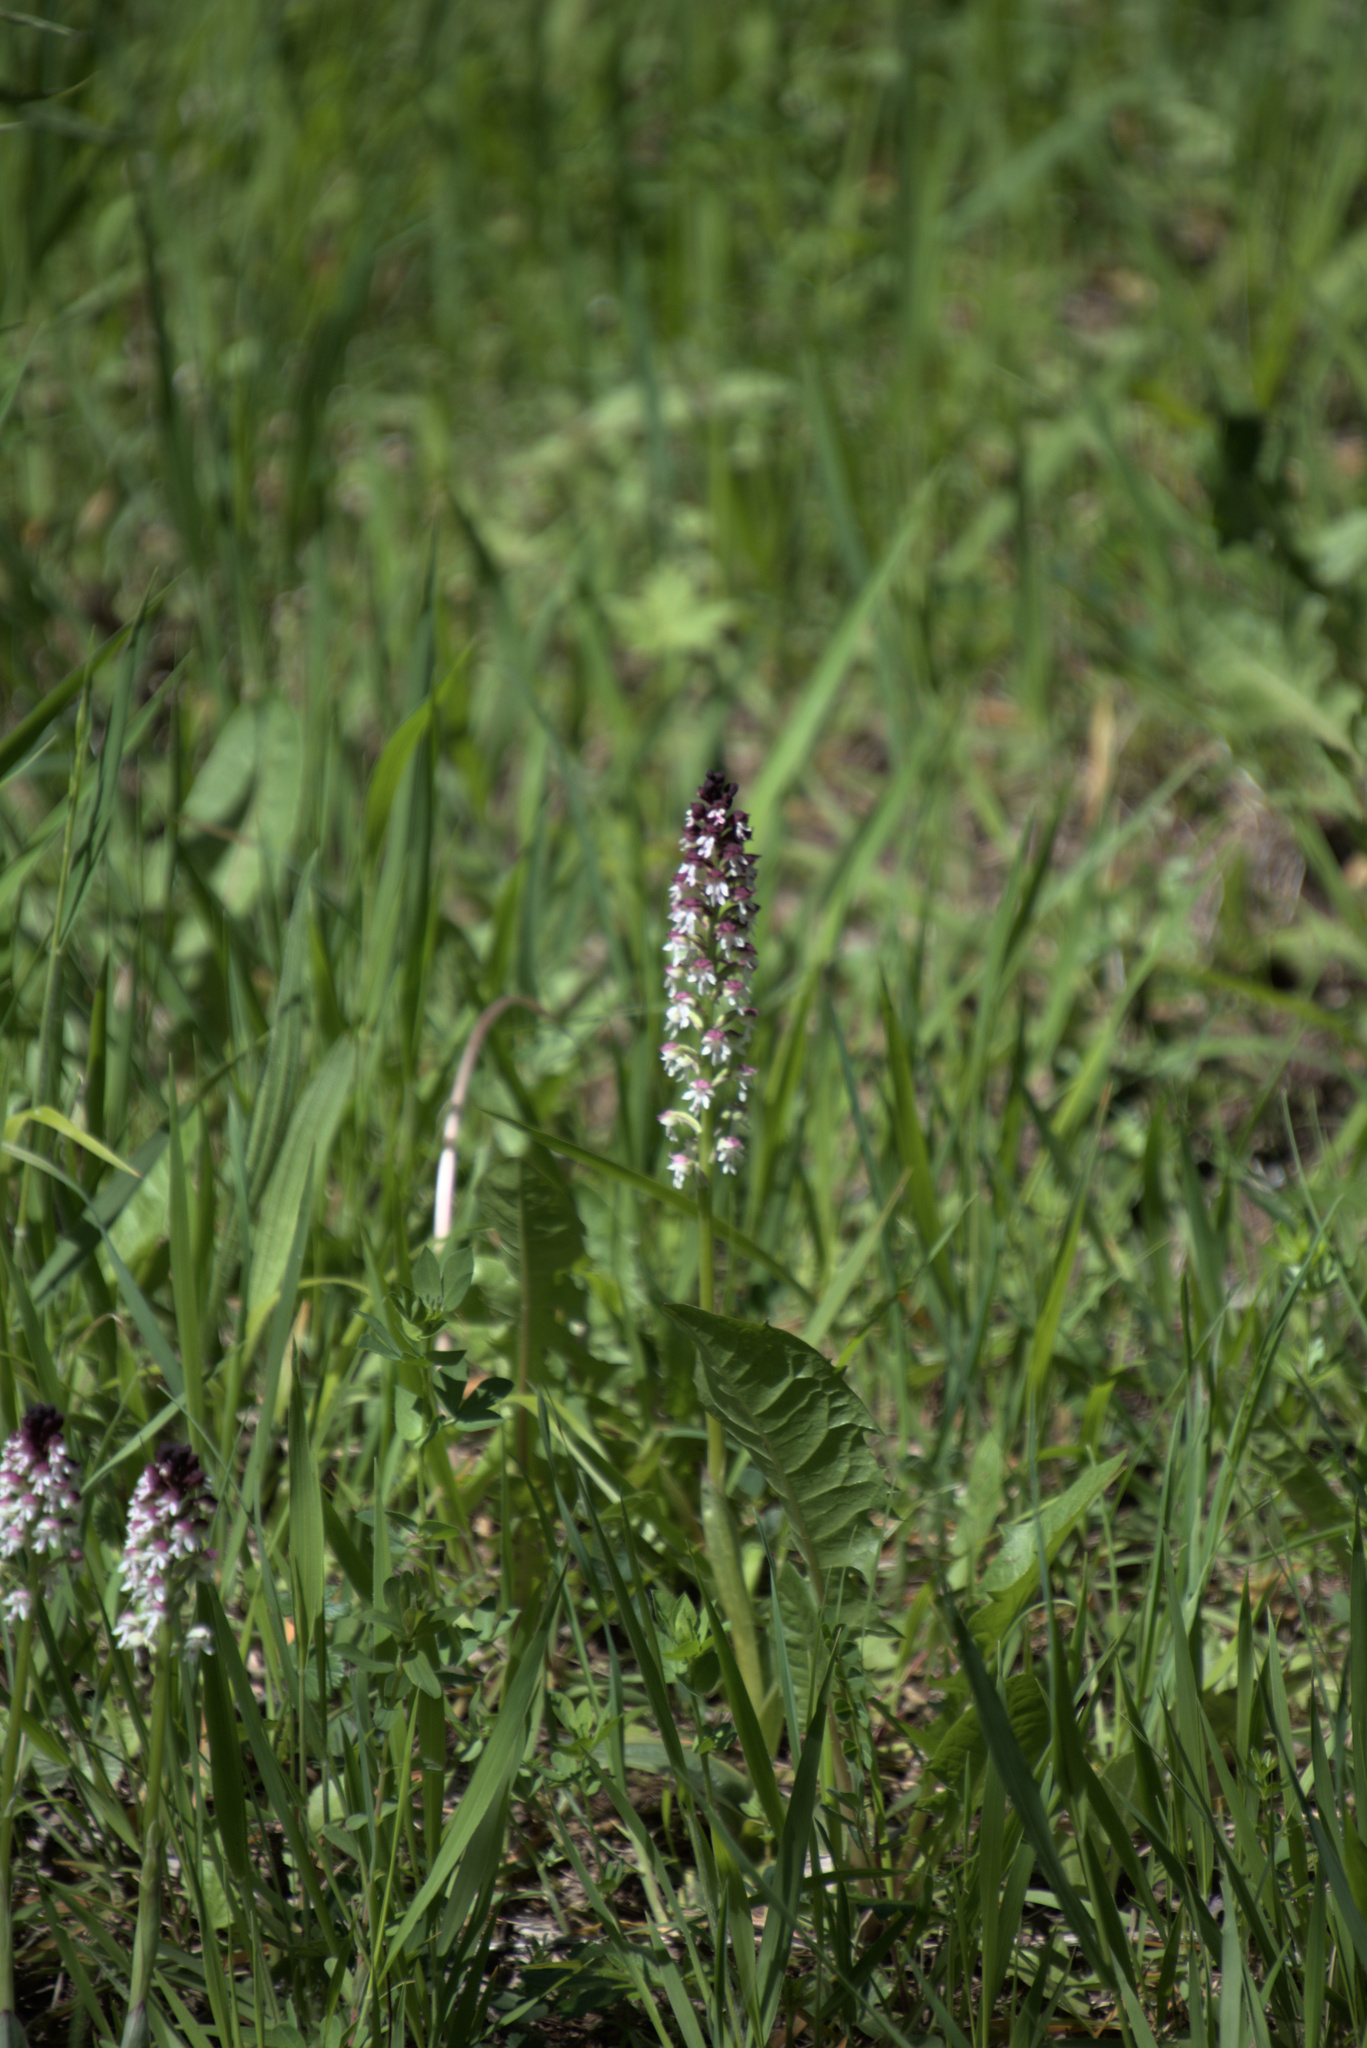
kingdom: Plantae
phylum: Tracheophyta
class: Liliopsida
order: Asparagales
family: Orchidaceae
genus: Neotinea
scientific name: Neotinea ustulata
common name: Burnt orchid
